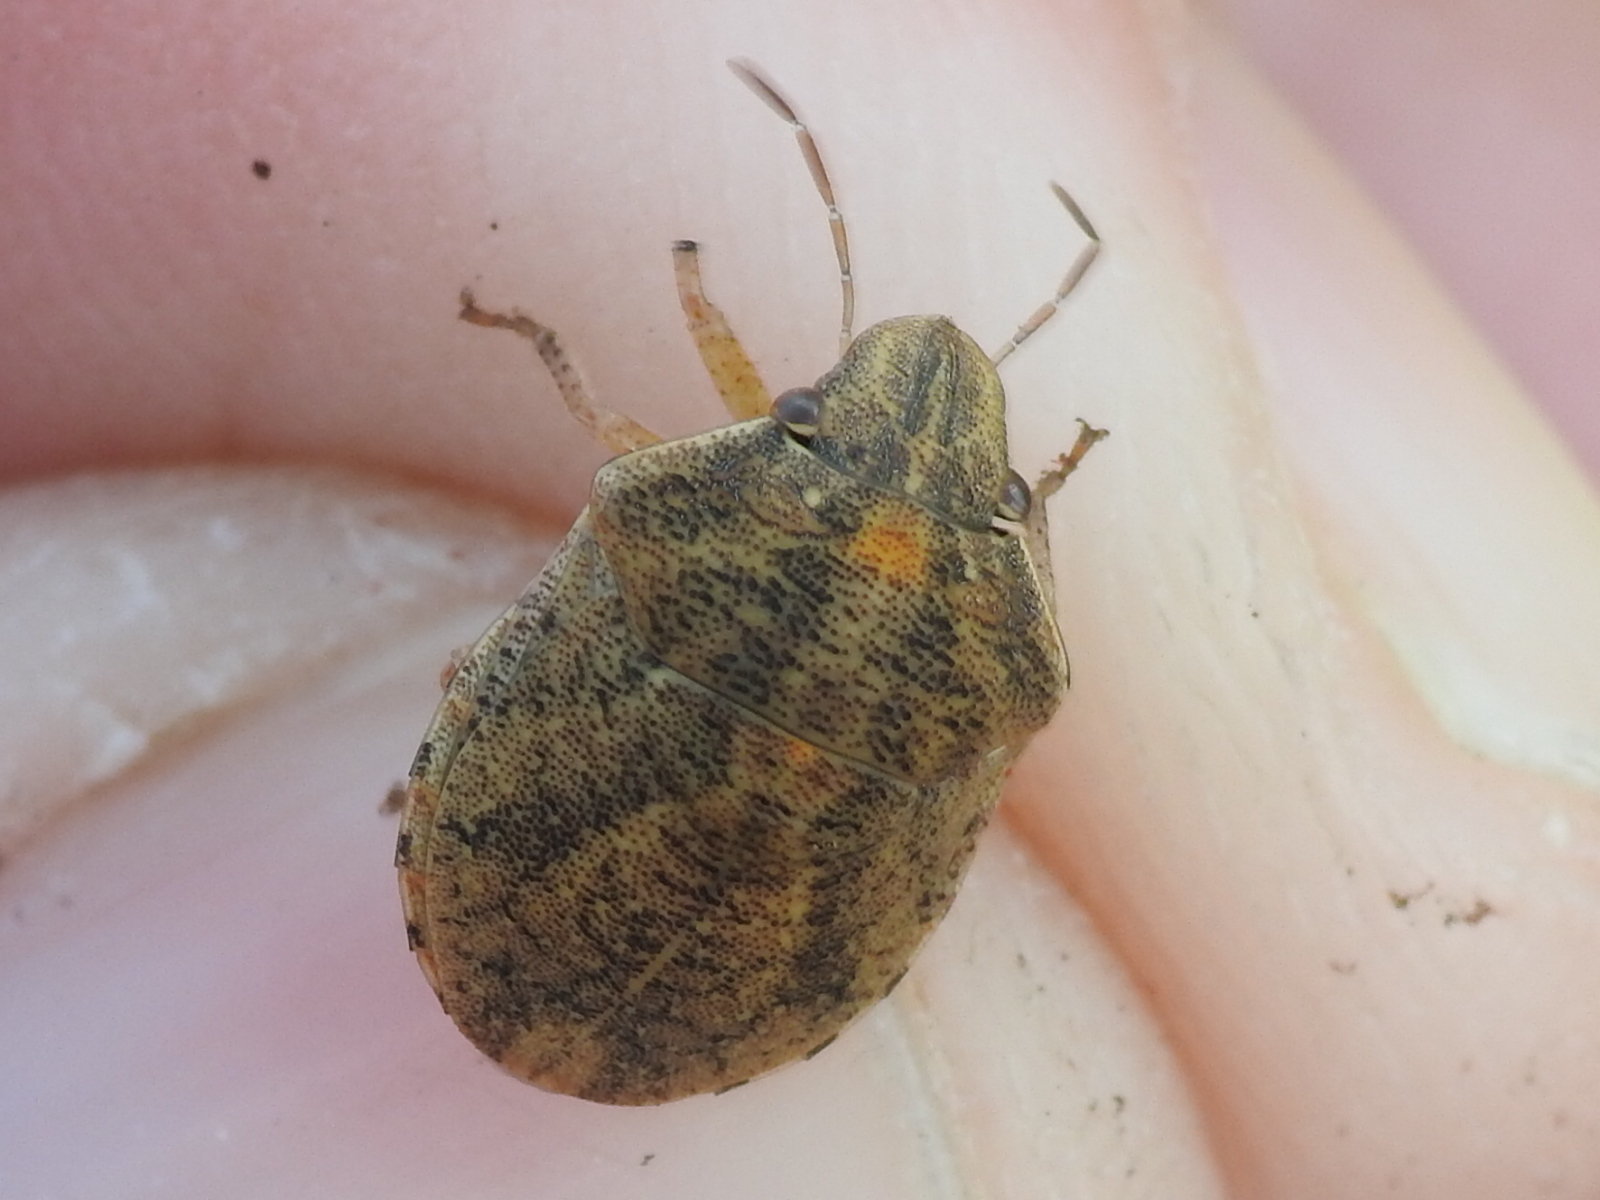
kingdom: Animalia
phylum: Arthropoda
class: Insecta
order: Hemiptera
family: Scutelleridae
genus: Sphyrocoris
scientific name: Sphyrocoris obliquus
